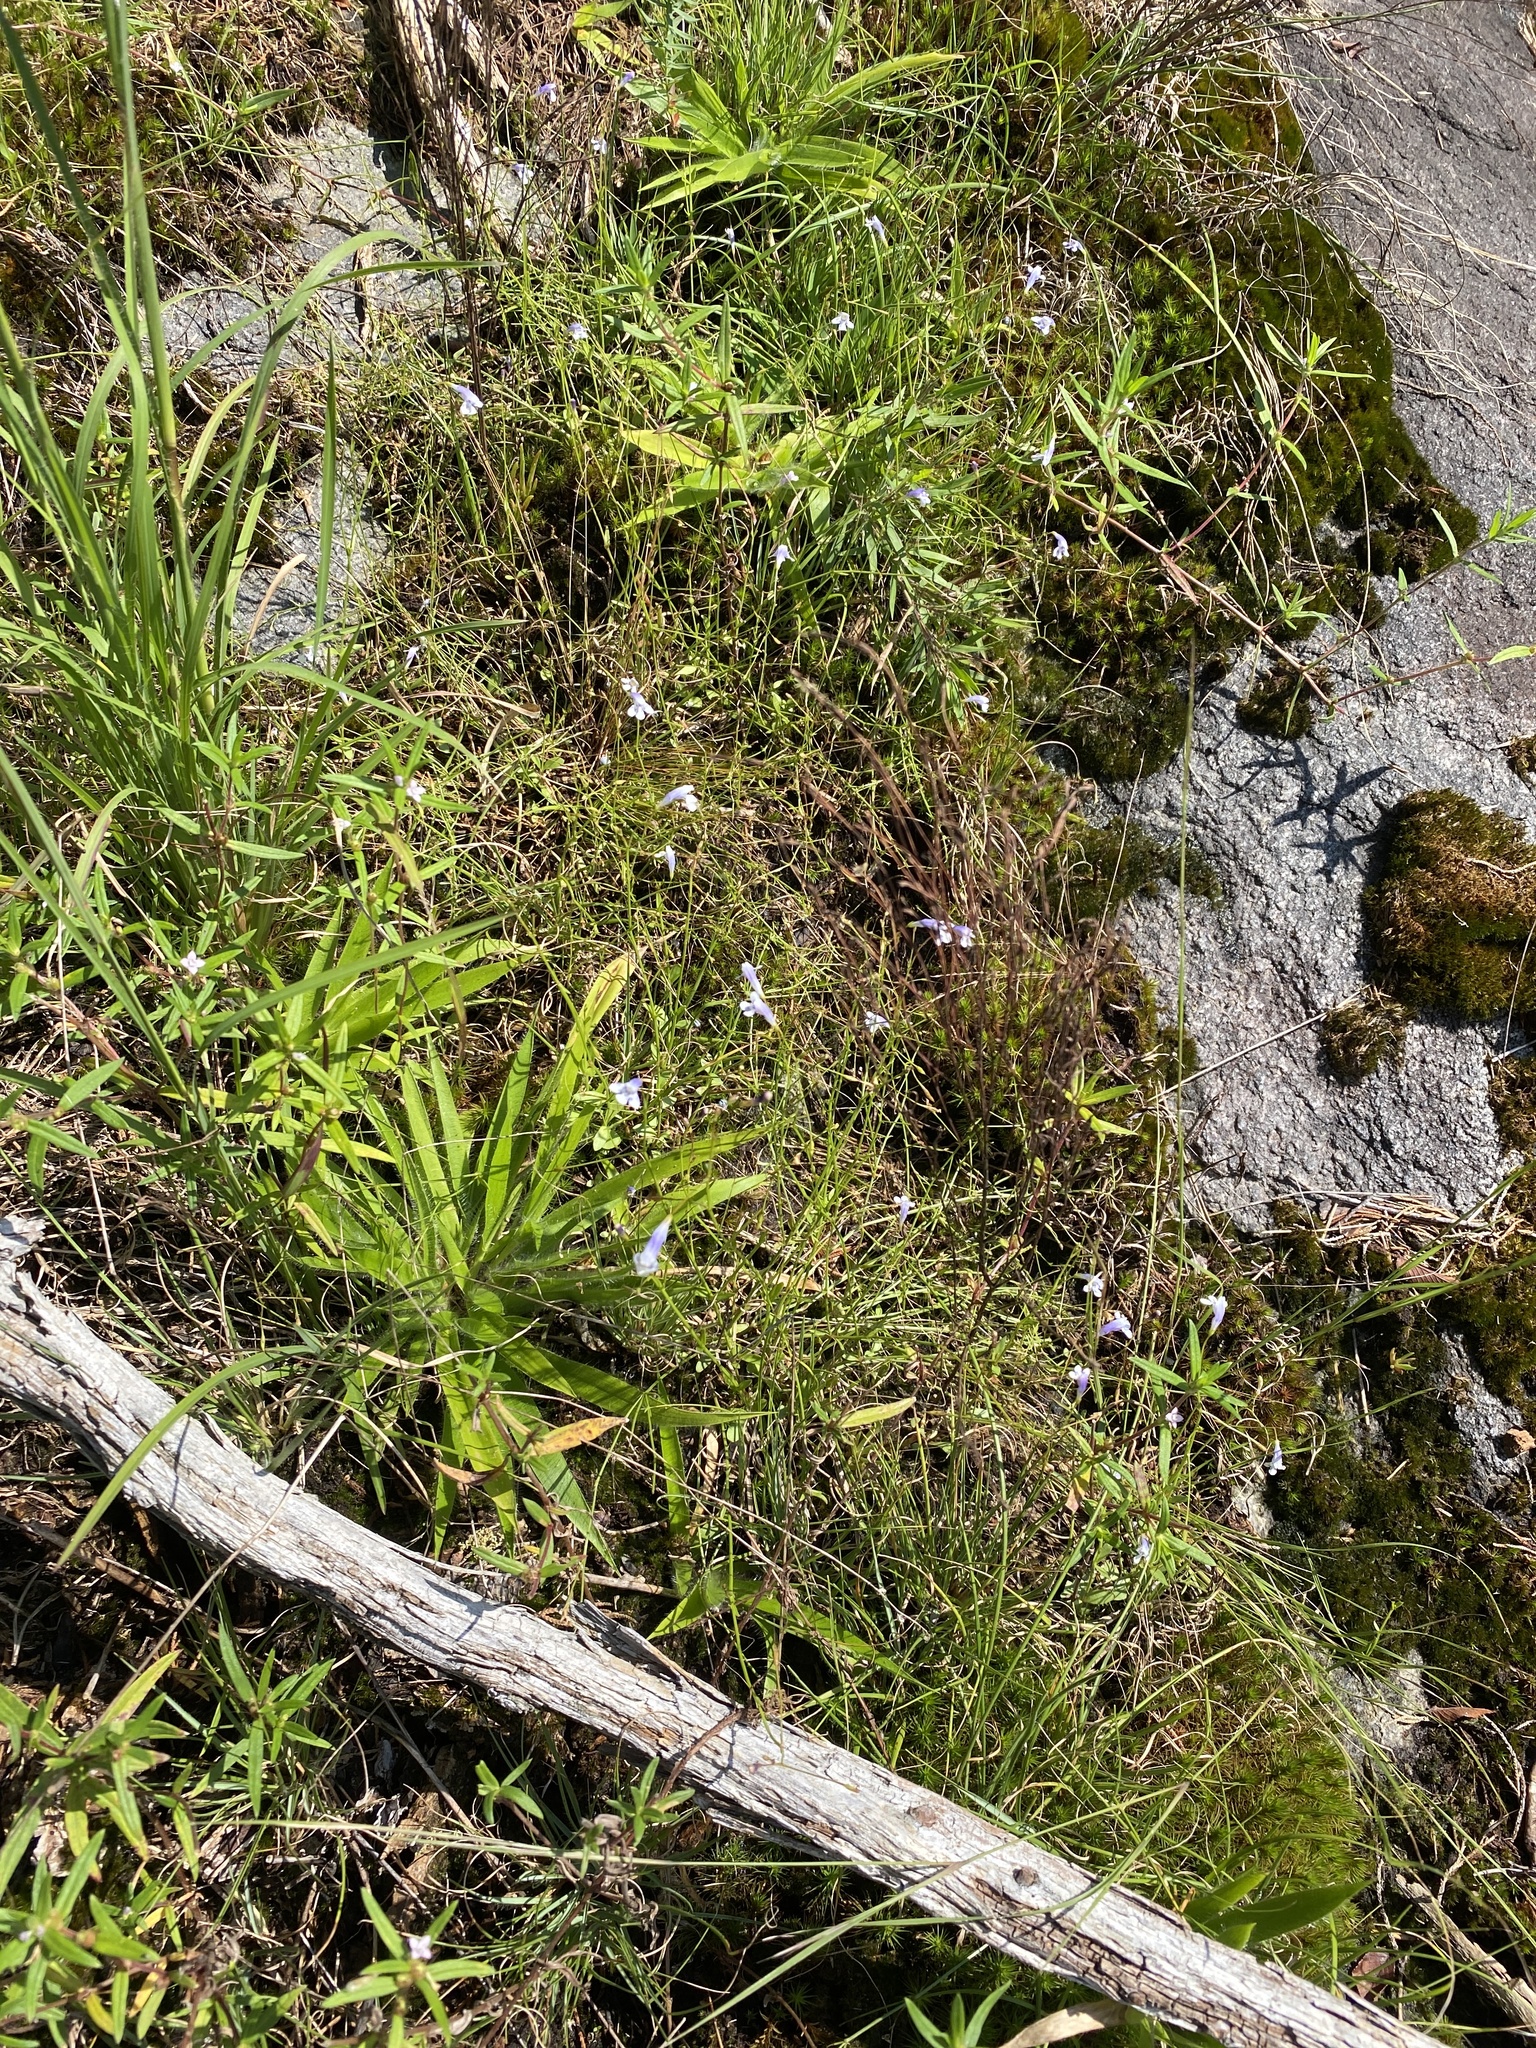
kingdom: Plantae
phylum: Tracheophyta
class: Magnoliopsida
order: Lamiales
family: Linderniaceae
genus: Lindernia
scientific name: Lindernia monticola
